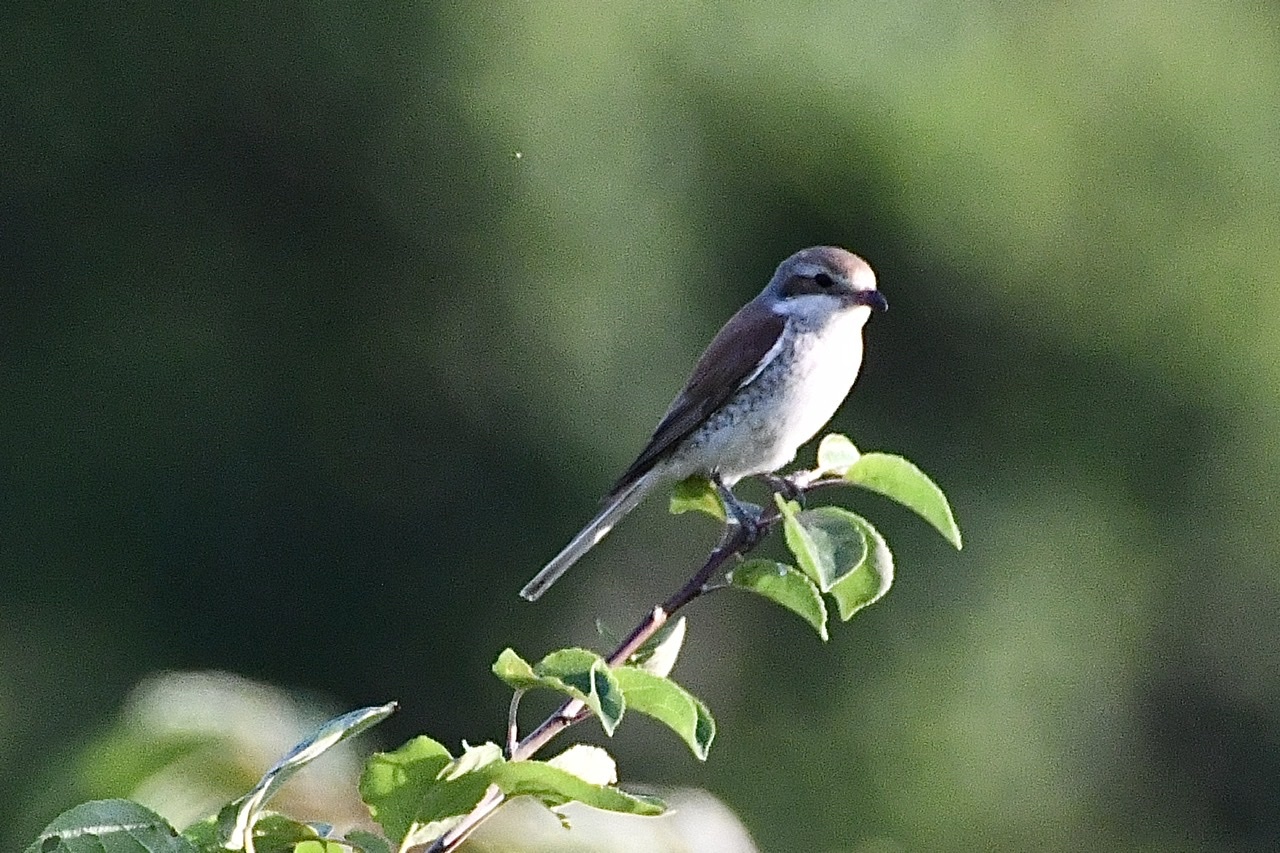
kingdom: Animalia
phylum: Chordata
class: Aves
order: Passeriformes
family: Laniidae
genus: Lanius
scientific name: Lanius collurio
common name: Red-backed shrike
